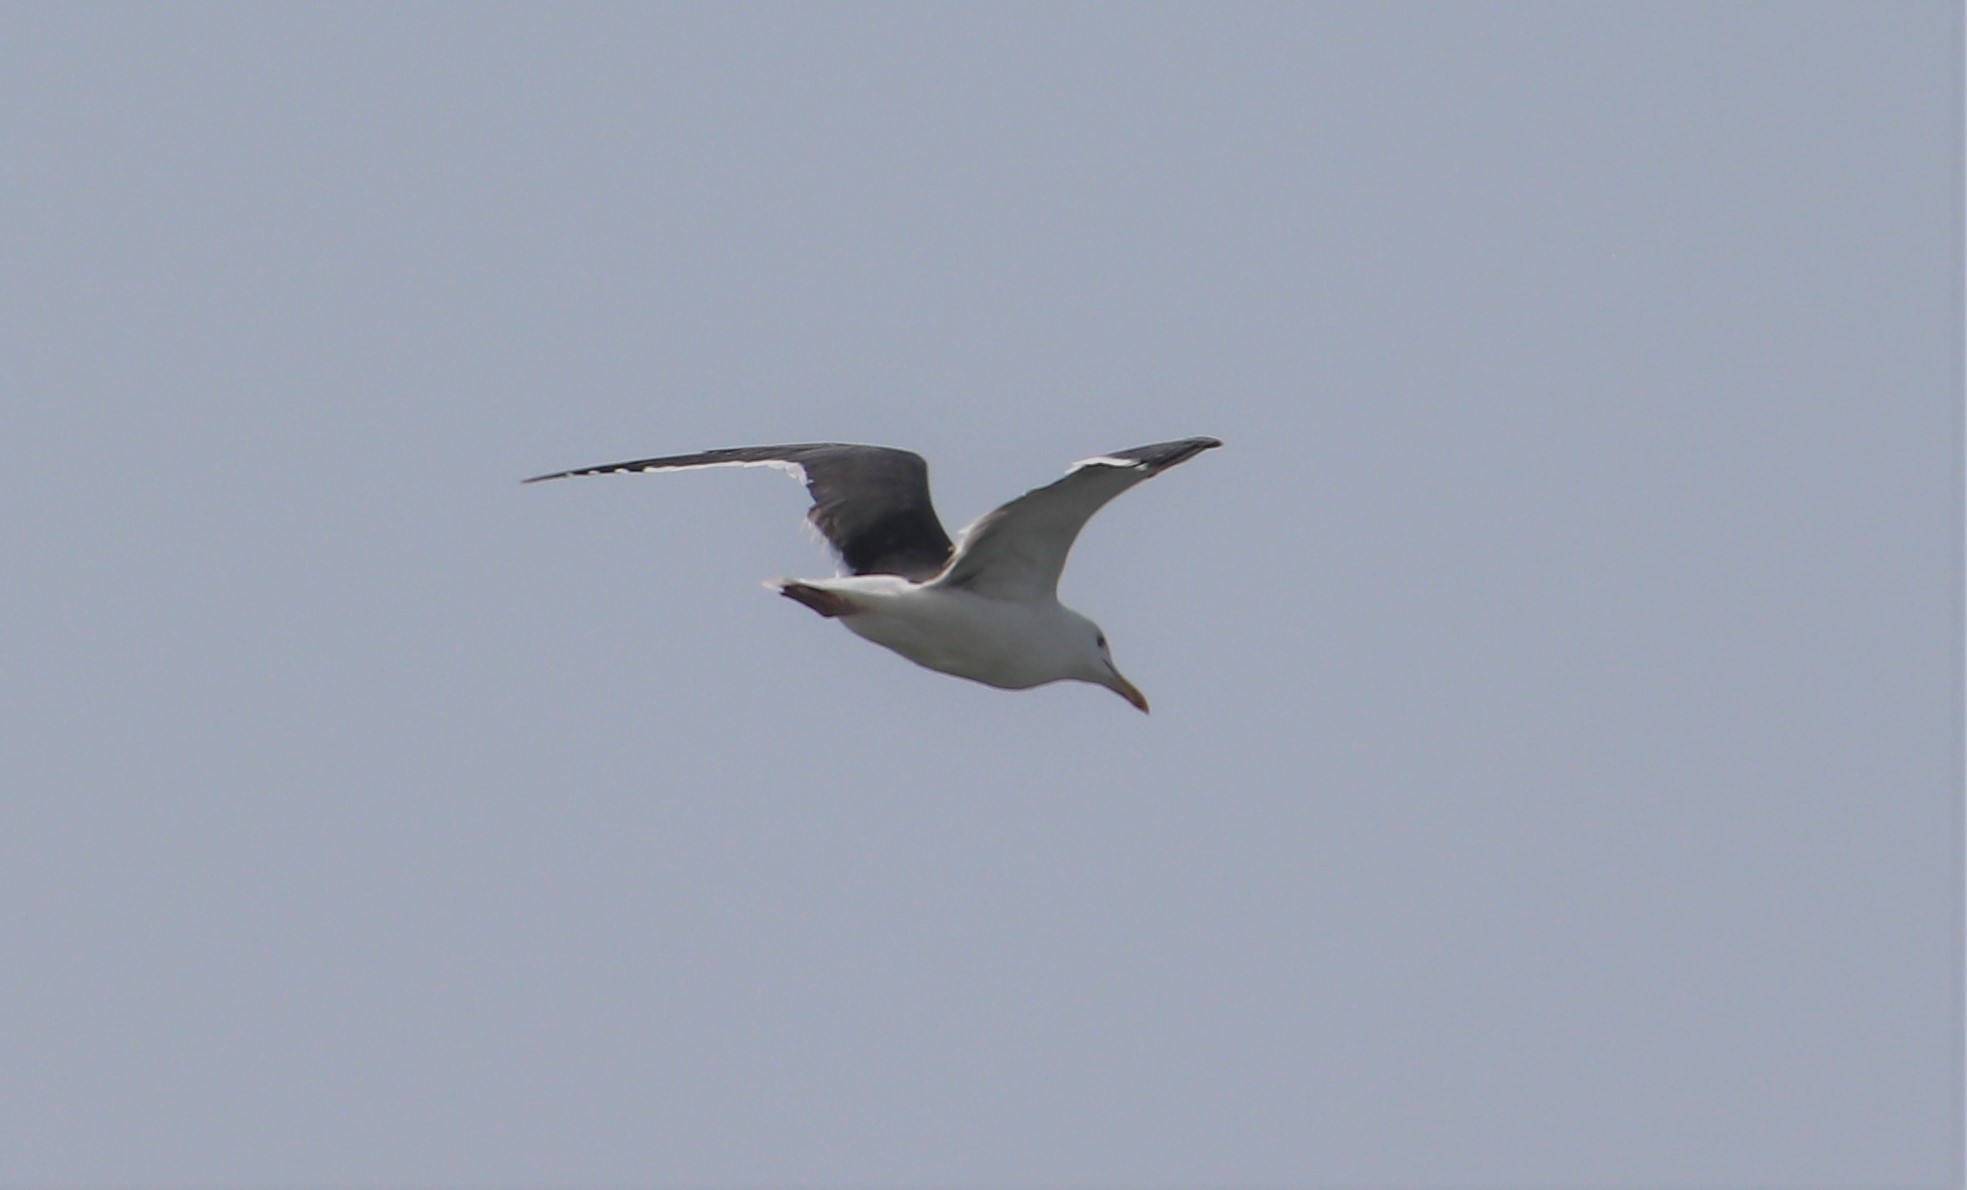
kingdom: Animalia
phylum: Chordata
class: Aves
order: Charadriiformes
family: Laridae
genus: Larus
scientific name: Larus occidentalis
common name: Western gull
